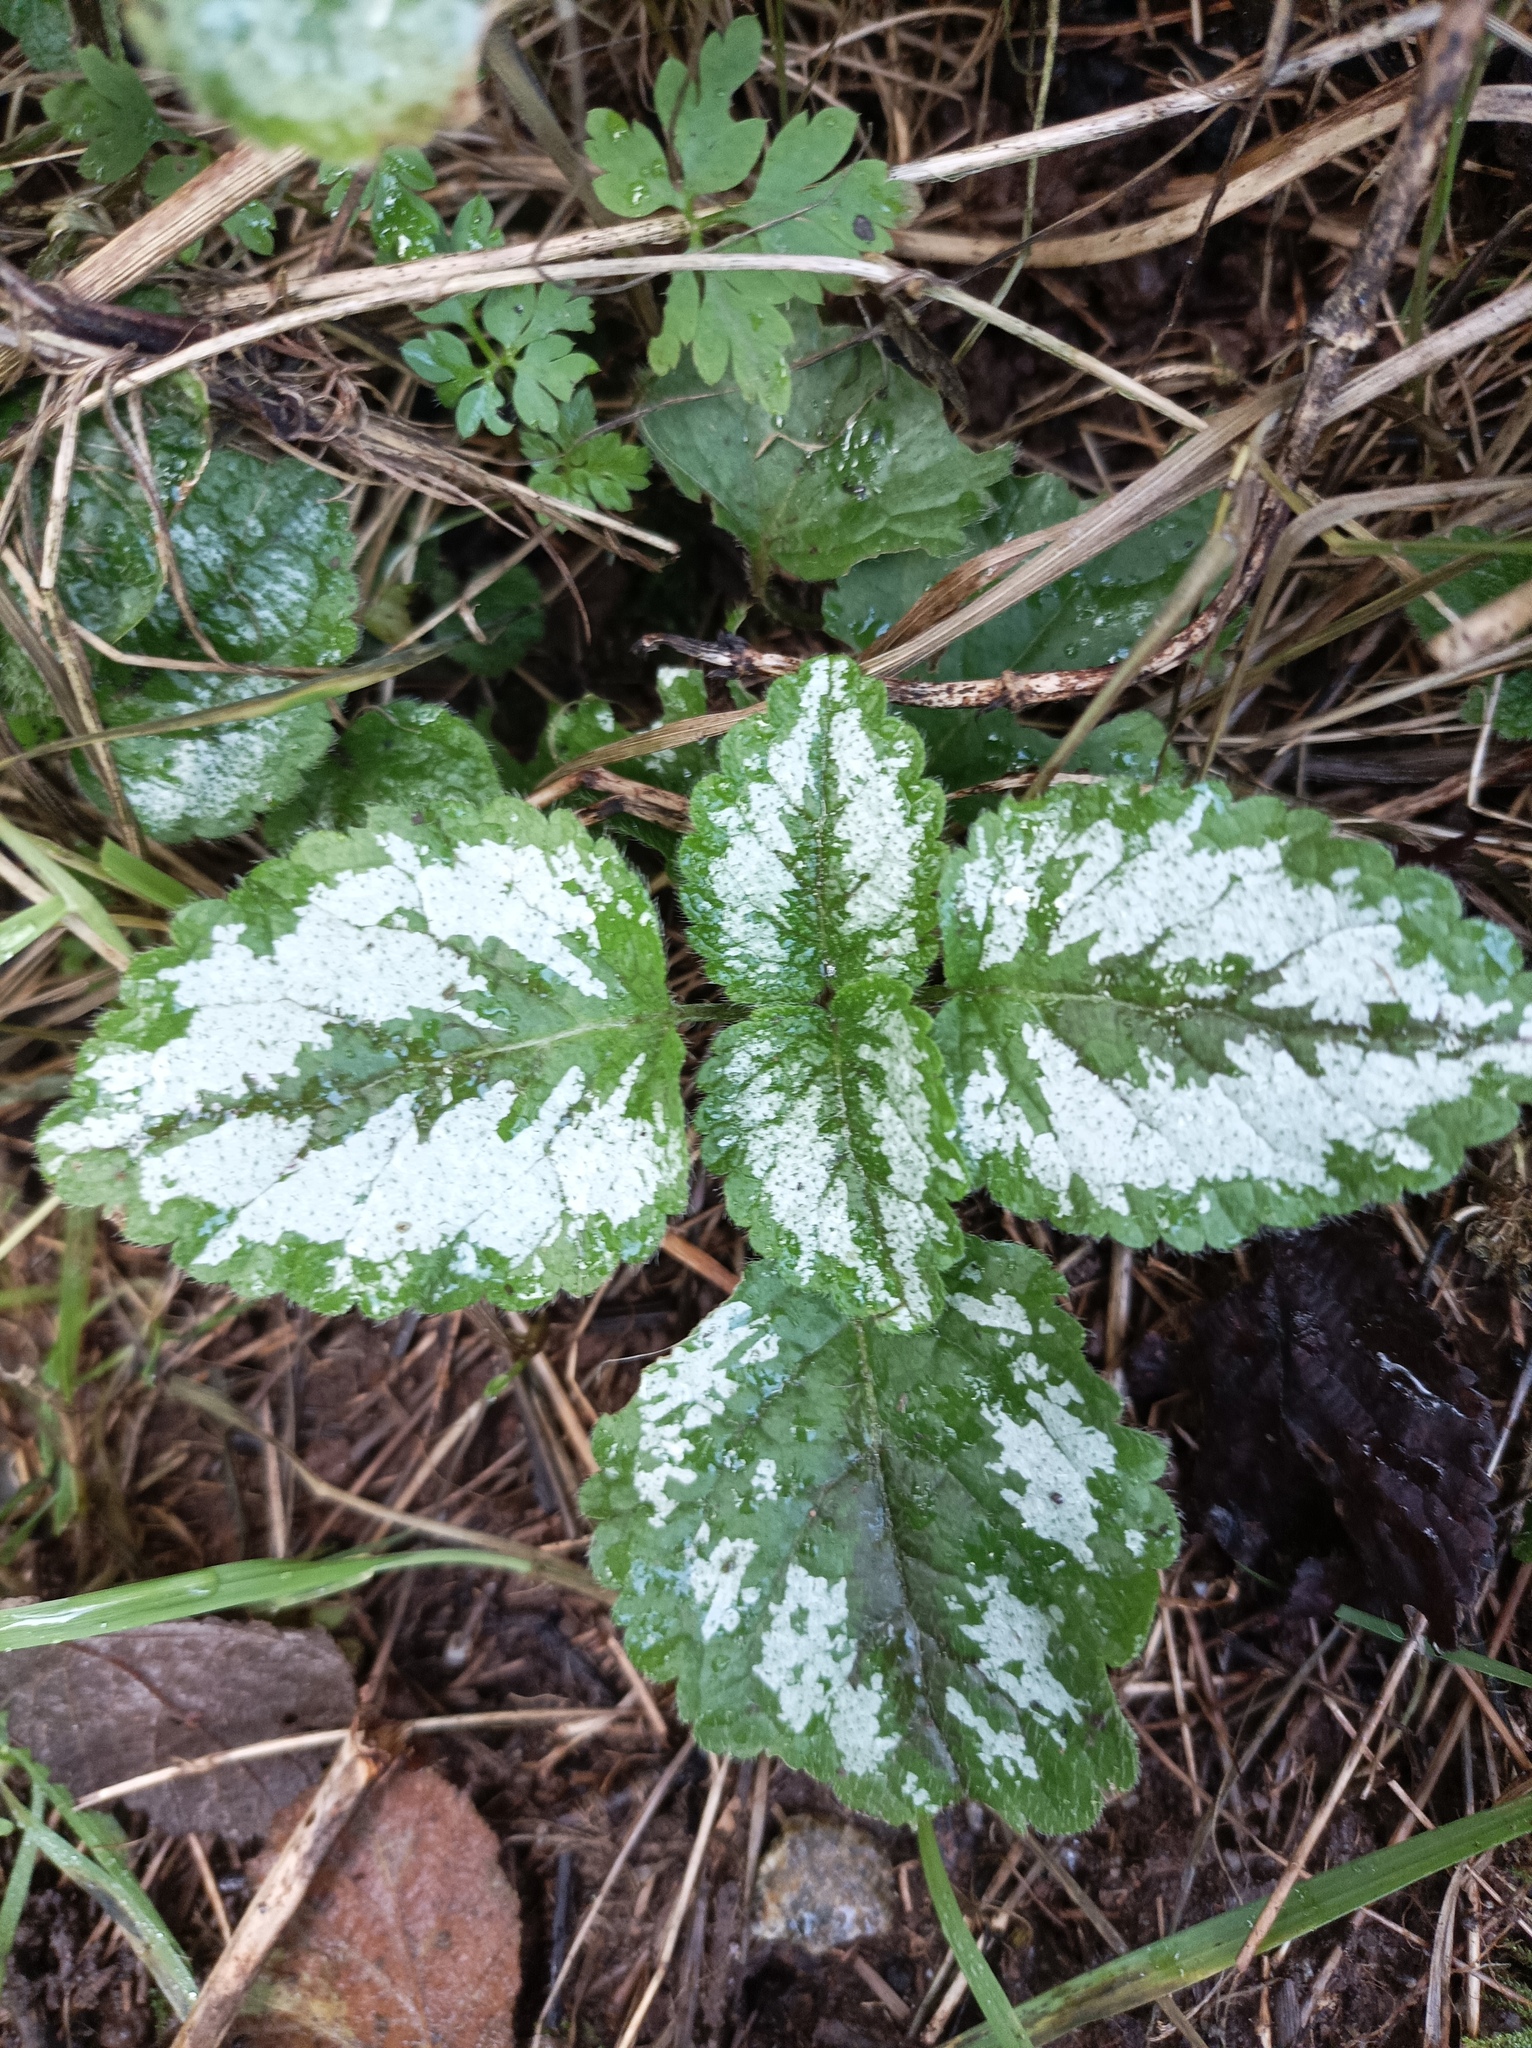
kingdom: Plantae
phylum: Tracheophyta
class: Magnoliopsida
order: Lamiales
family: Lamiaceae
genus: Lamium
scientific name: Lamium galeobdolon
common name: Yellow archangel
